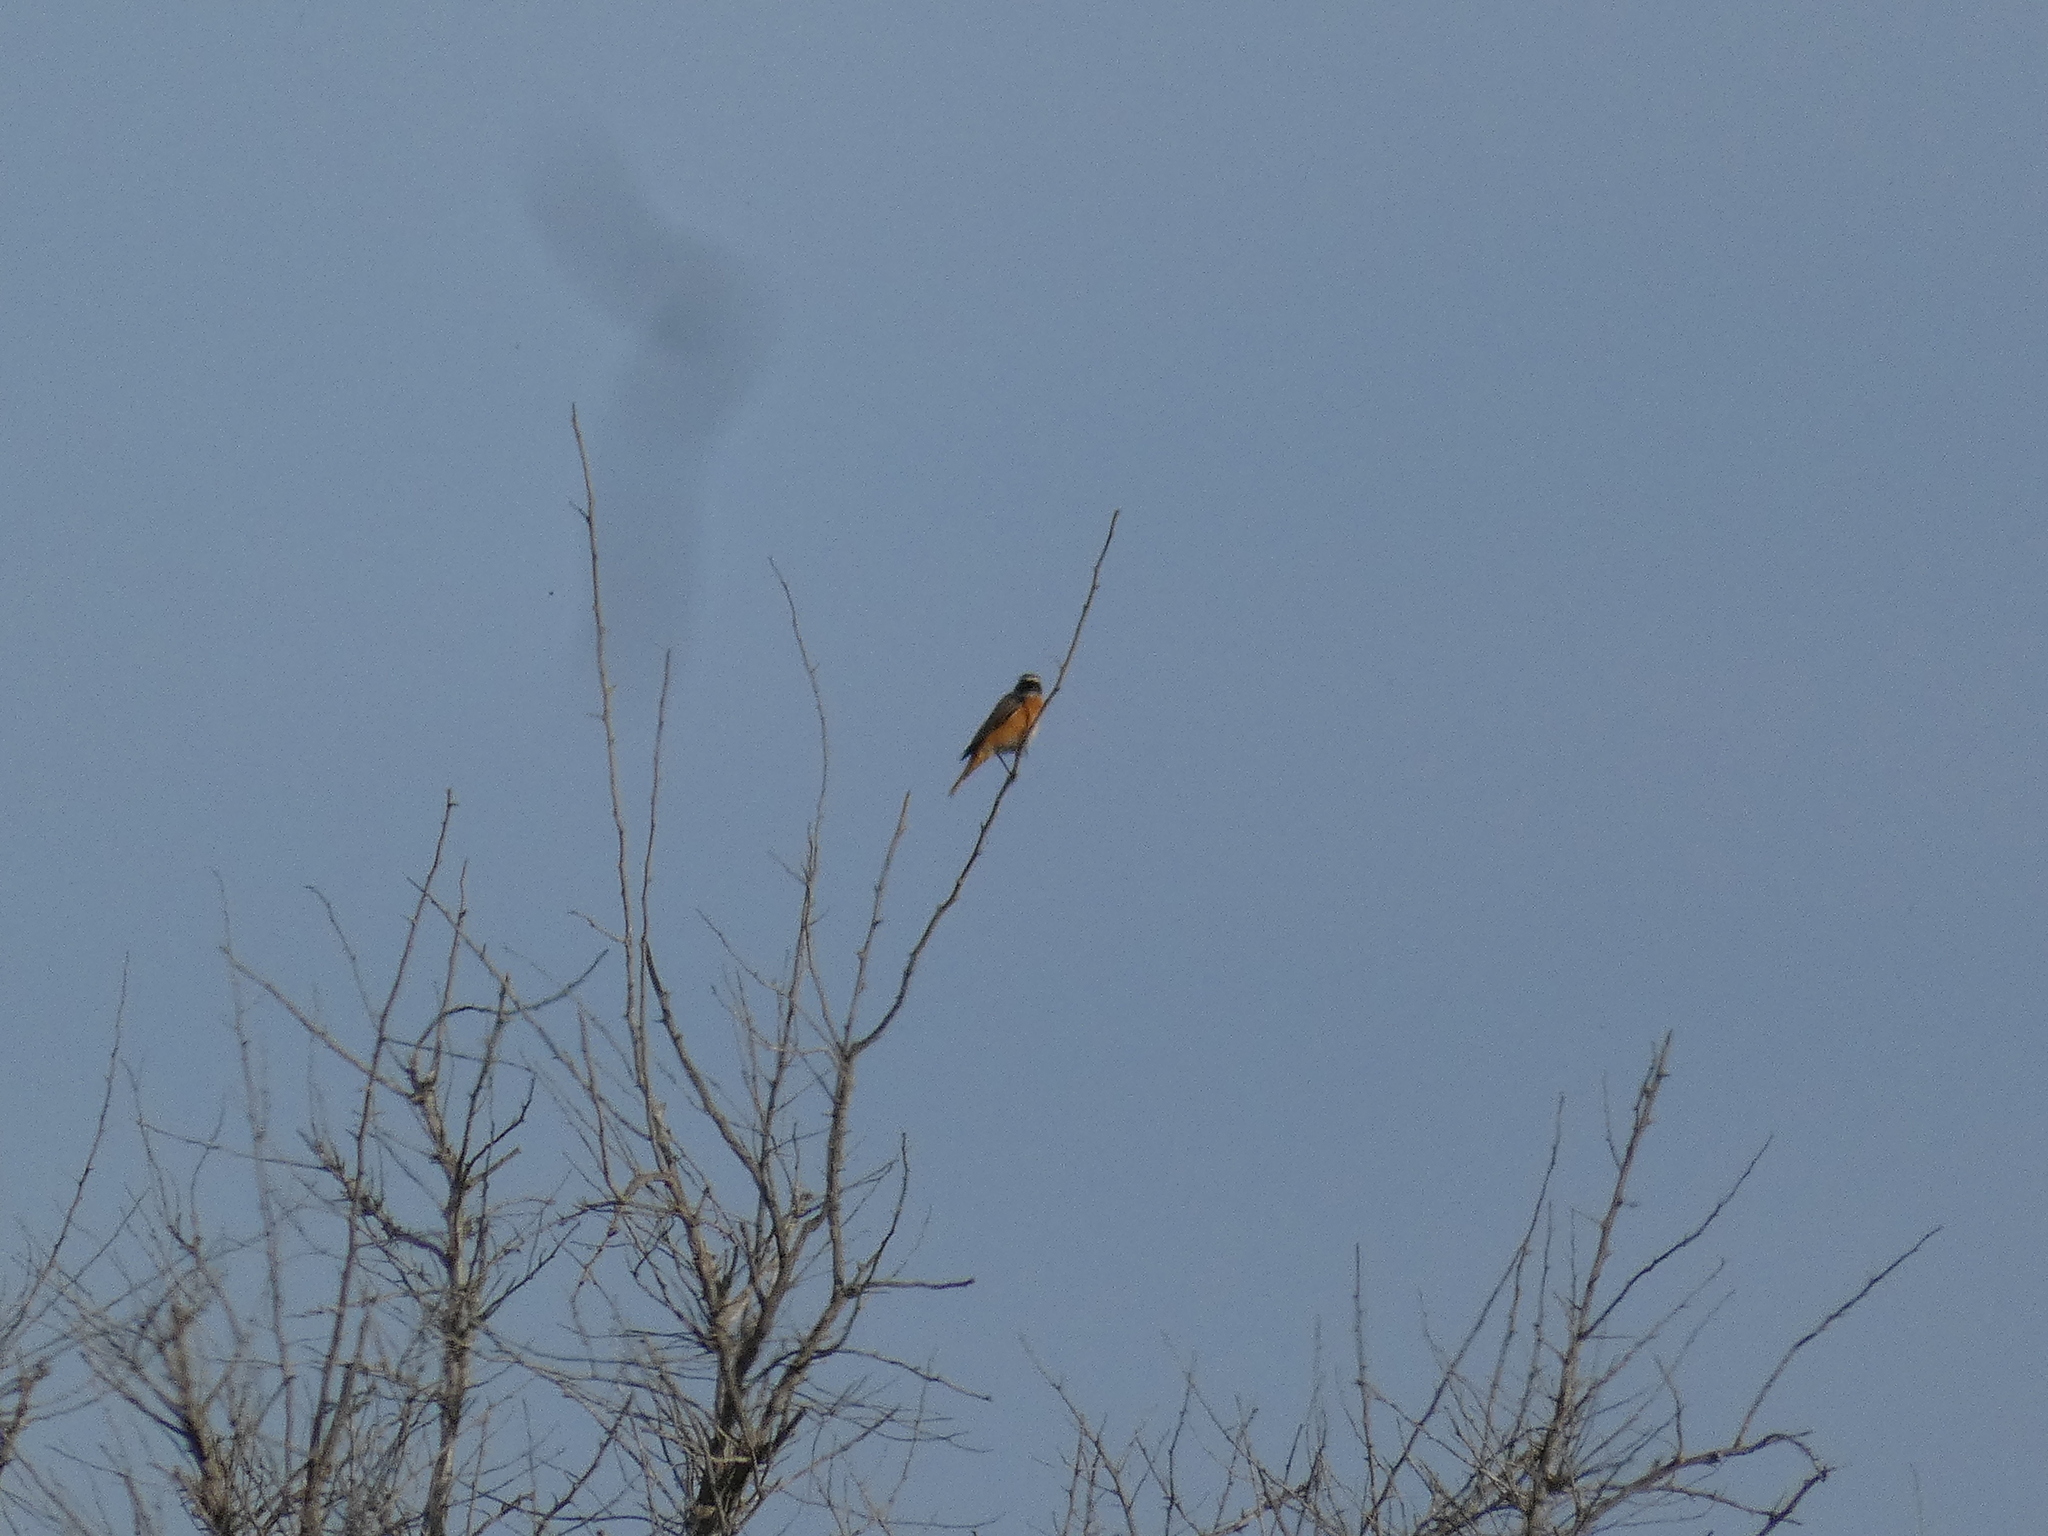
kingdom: Animalia
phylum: Chordata
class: Aves
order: Passeriformes
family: Muscicapidae
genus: Phoenicurus
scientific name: Phoenicurus phoenicurus
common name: Common redstart
